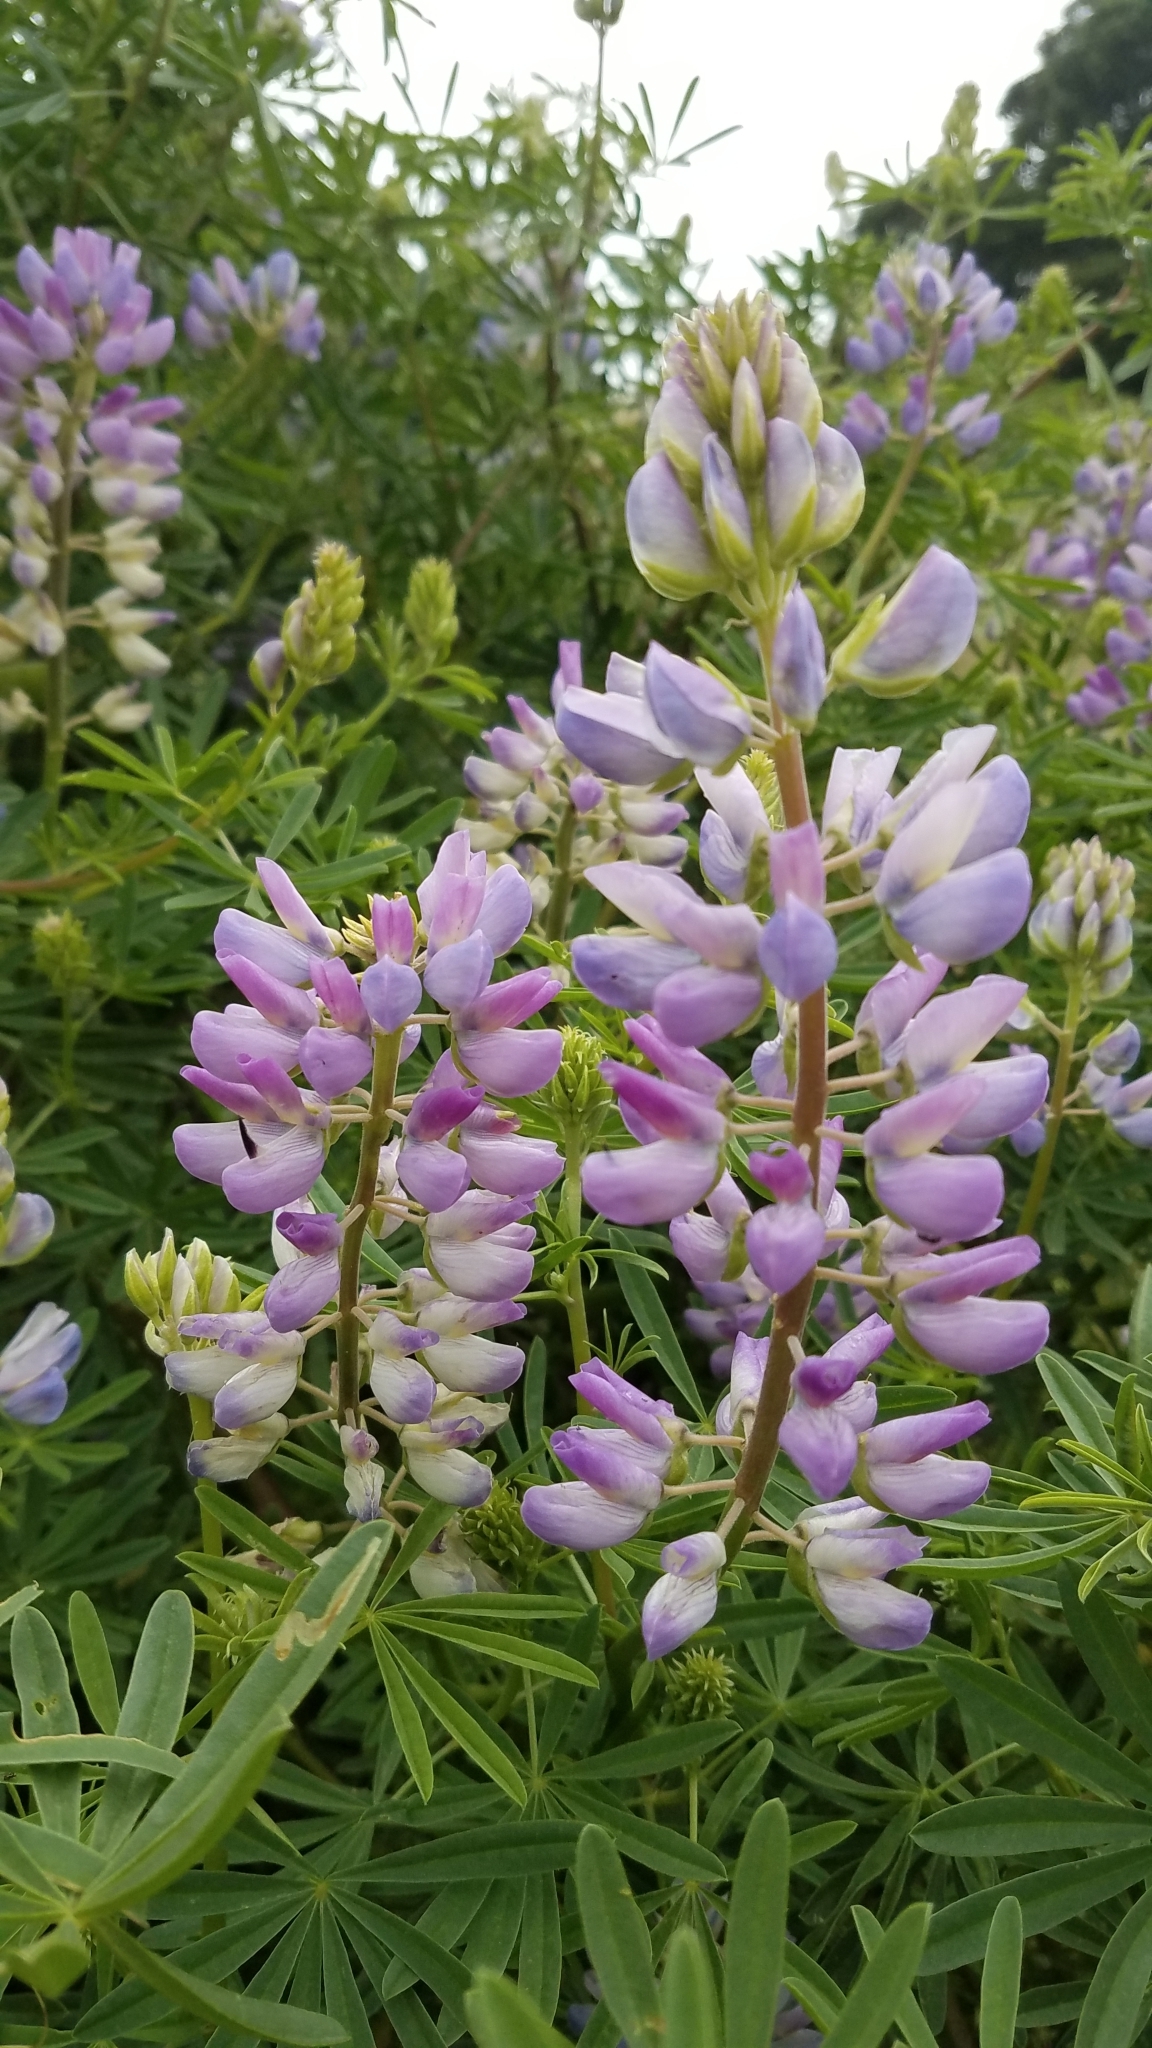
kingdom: Plantae
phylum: Tracheophyta
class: Magnoliopsida
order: Fabales
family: Fabaceae
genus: Lupinus
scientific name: Lupinus arboreus
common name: Yellow bush lupine
